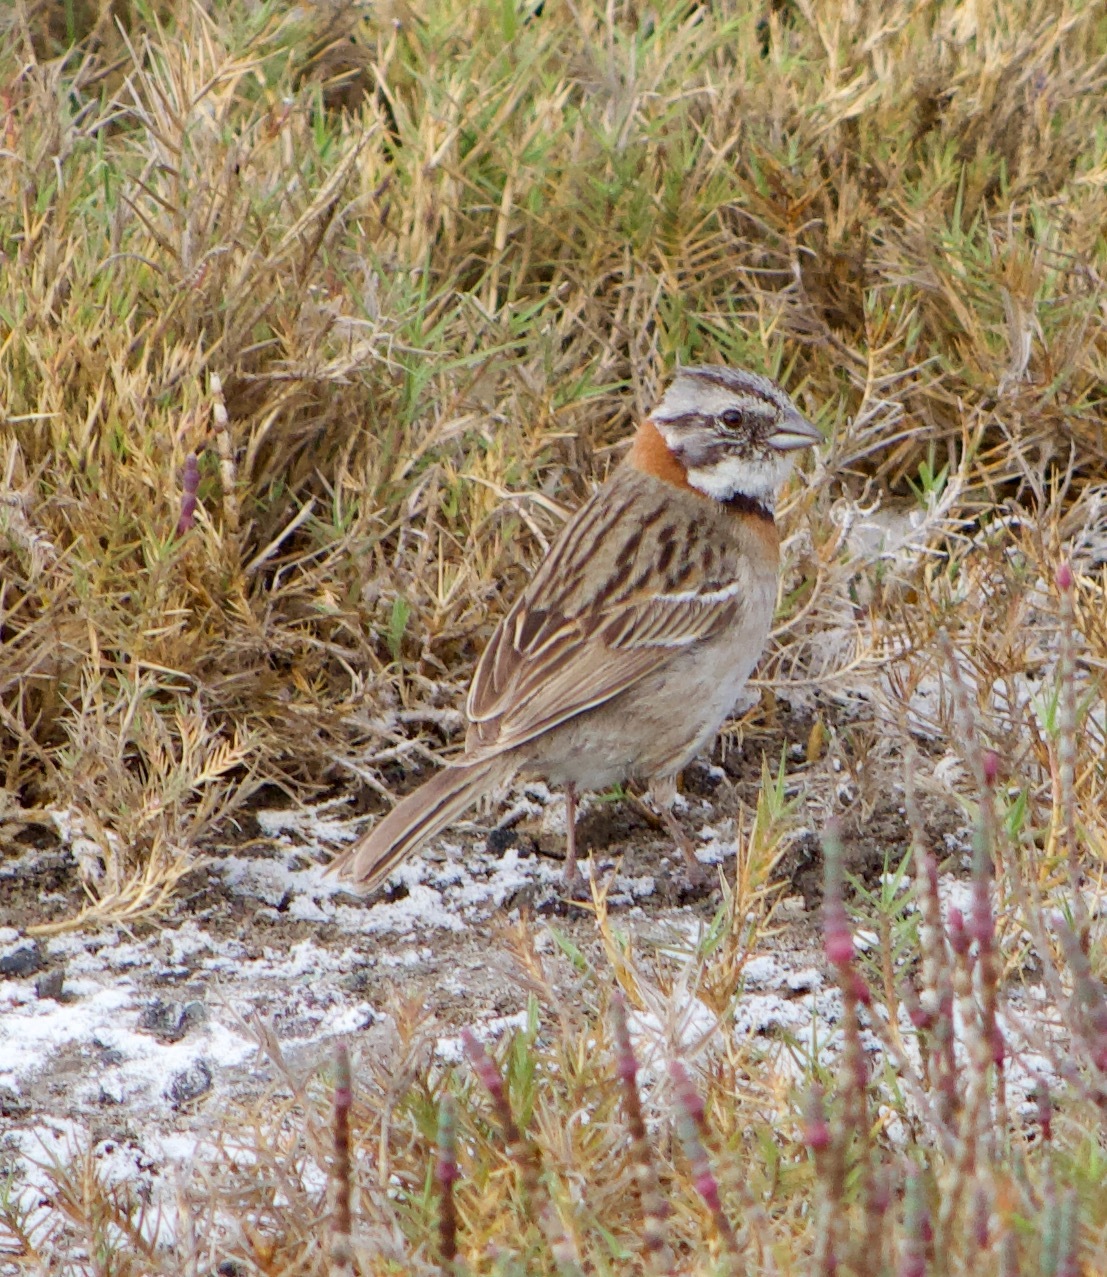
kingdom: Animalia
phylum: Chordata
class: Aves
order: Passeriformes
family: Passerellidae
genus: Zonotrichia
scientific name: Zonotrichia capensis
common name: Rufous-collared sparrow
